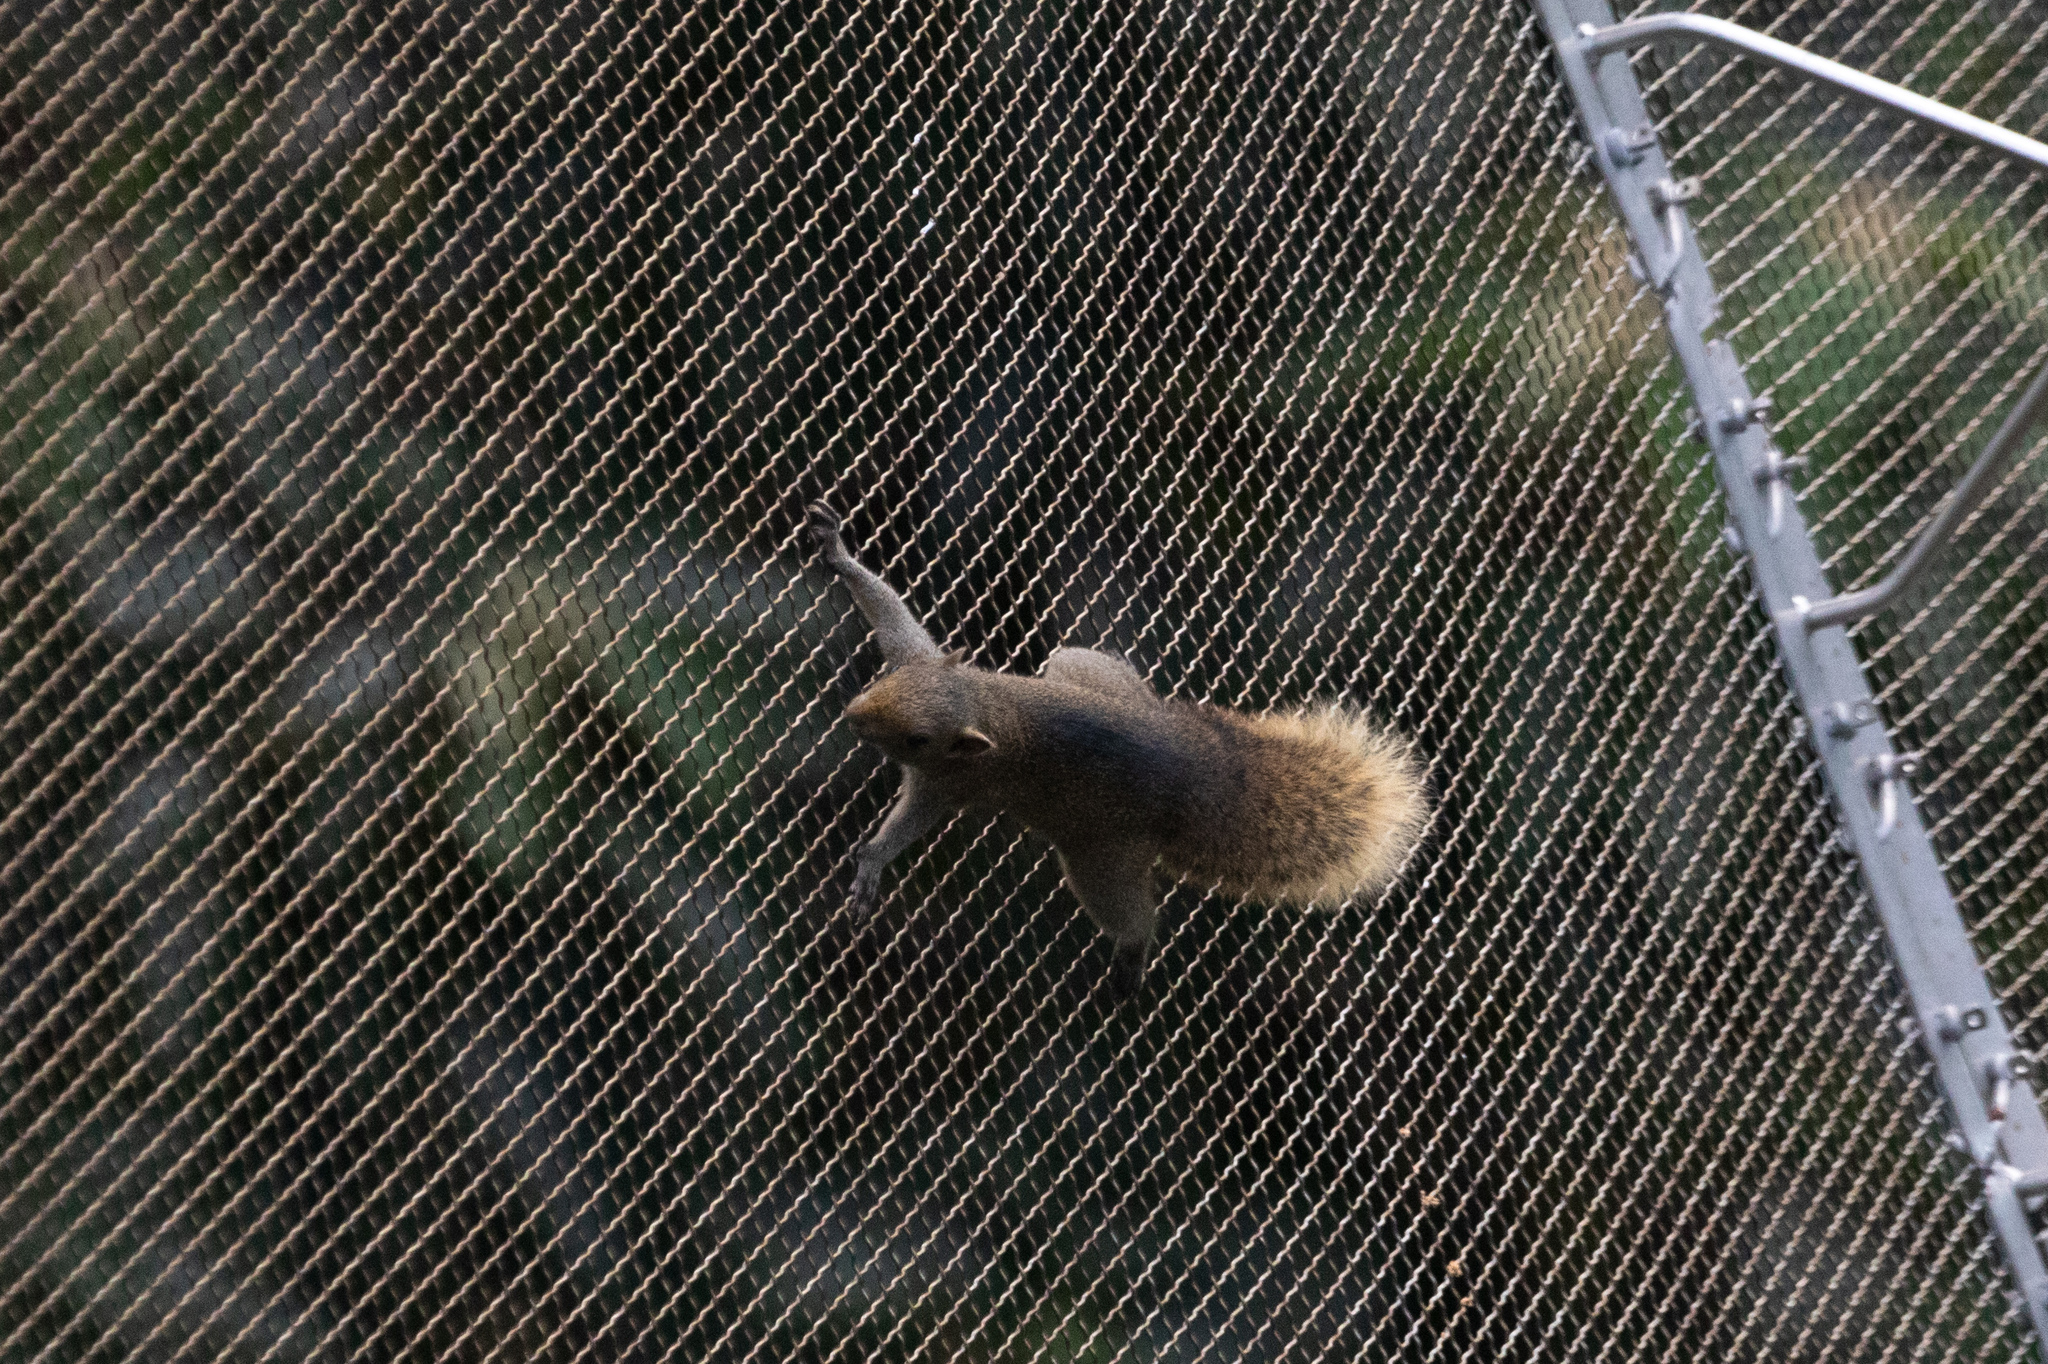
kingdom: Animalia
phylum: Chordata
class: Mammalia
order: Rodentia
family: Sciuridae
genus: Callosciurus
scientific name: Callosciurus erythraeus
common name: Pallas's squirrel
